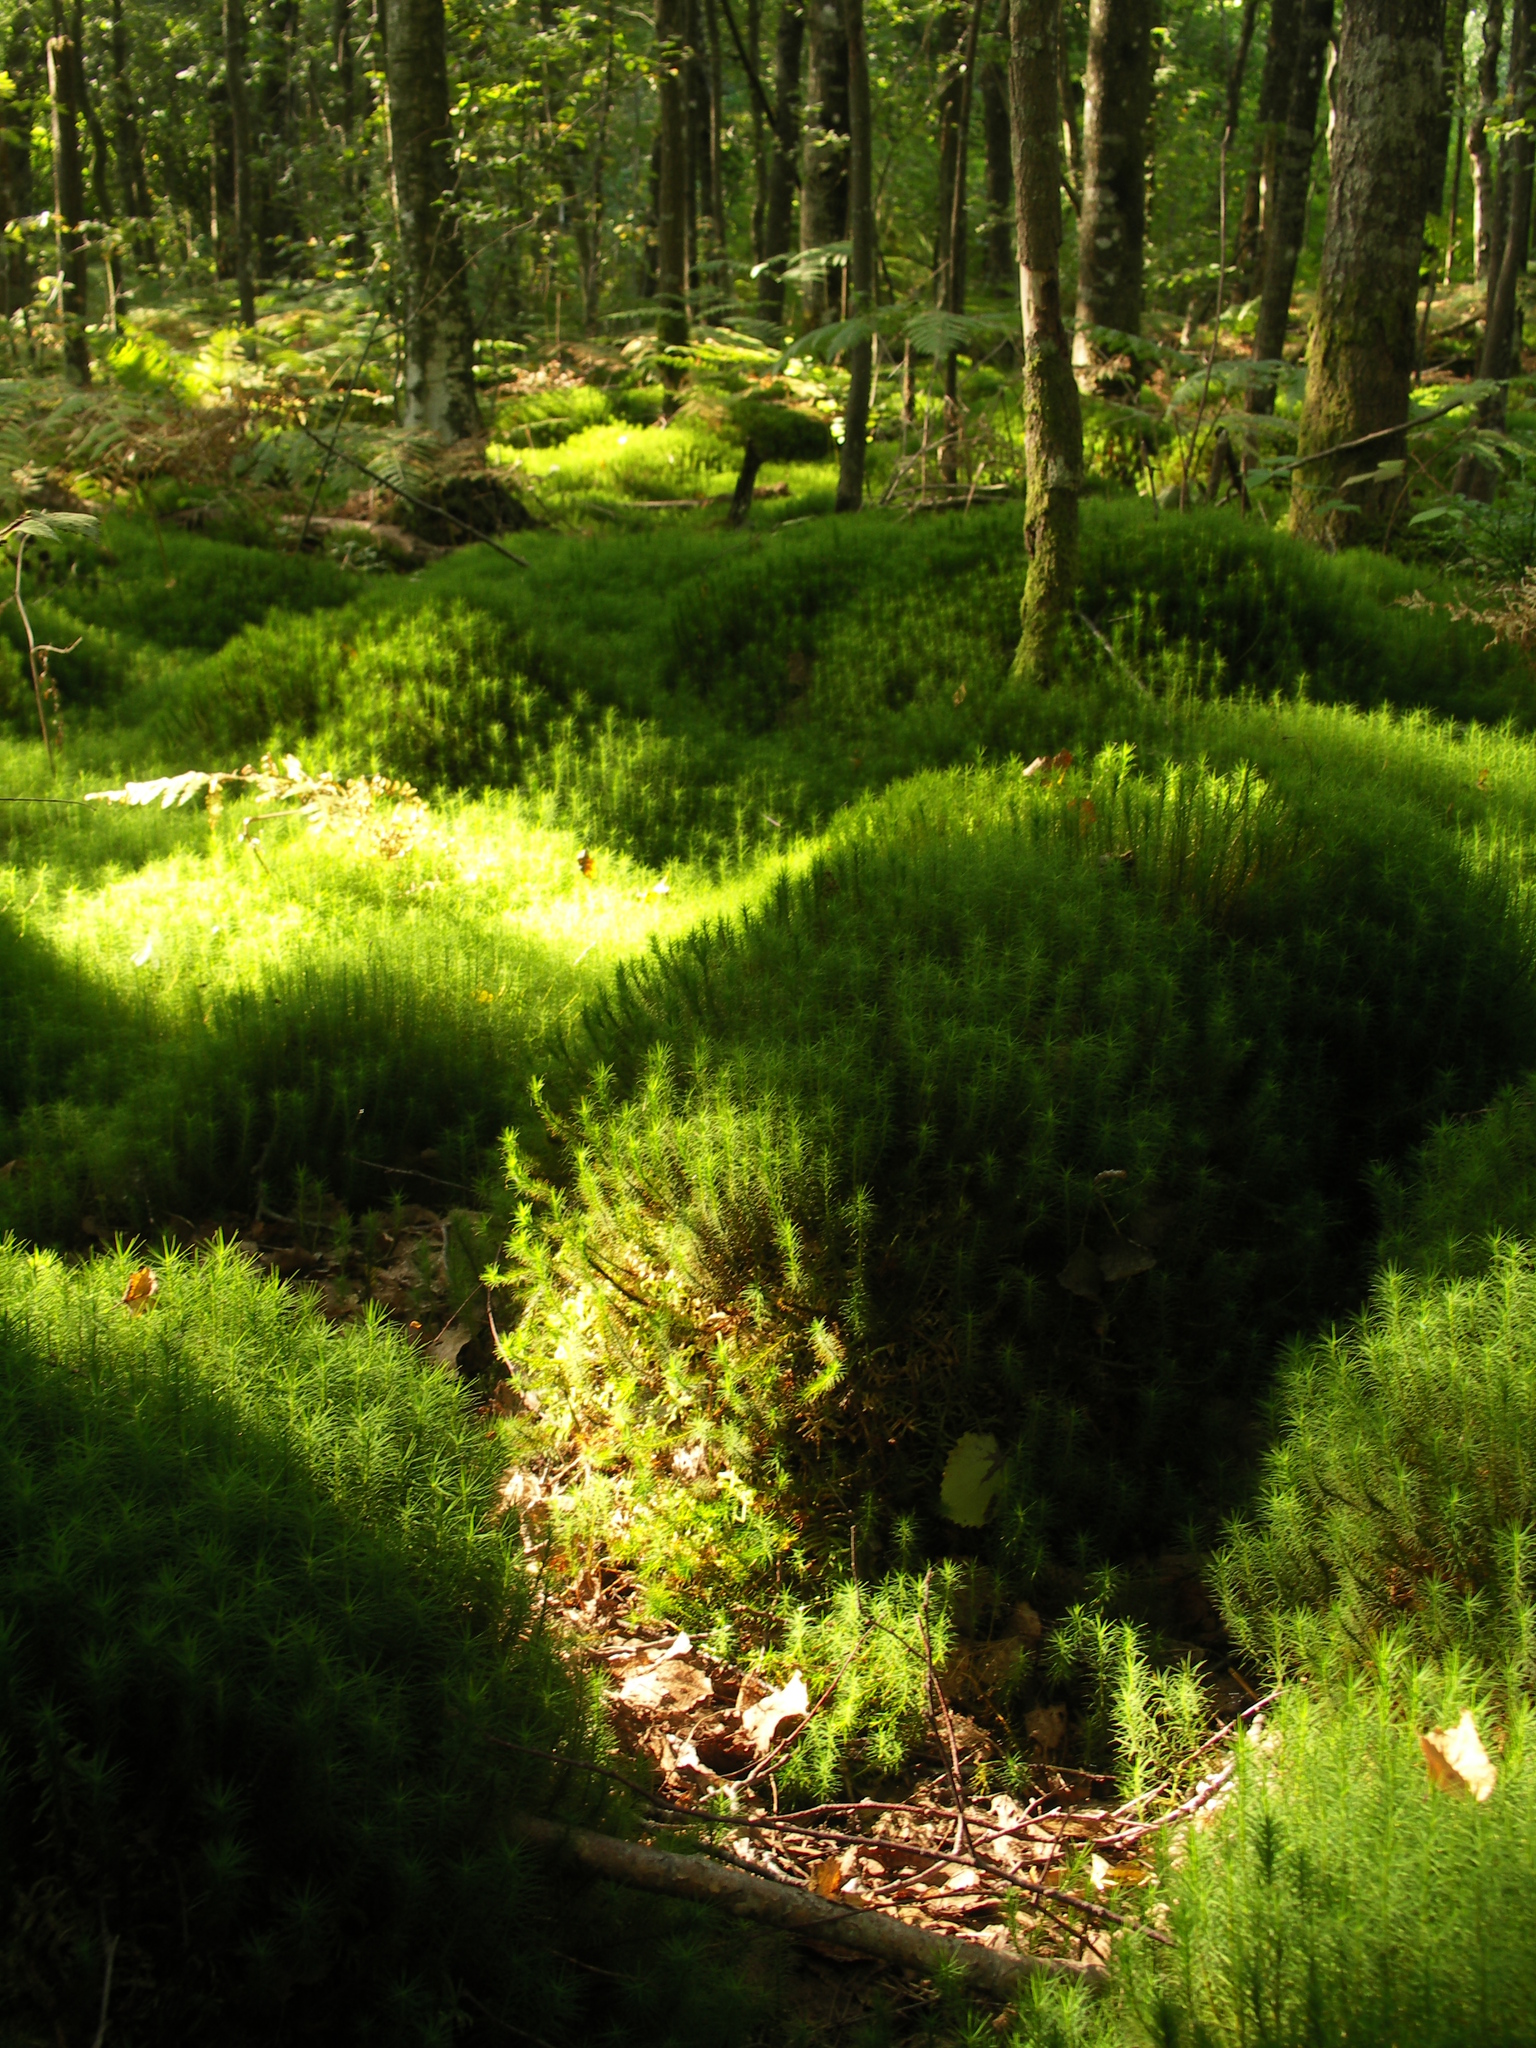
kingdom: Plantae
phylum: Bryophyta
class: Polytrichopsida
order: Polytrichales
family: Polytrichaceae
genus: Polytrichum
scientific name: Polytrichum commune
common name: Common haircap
